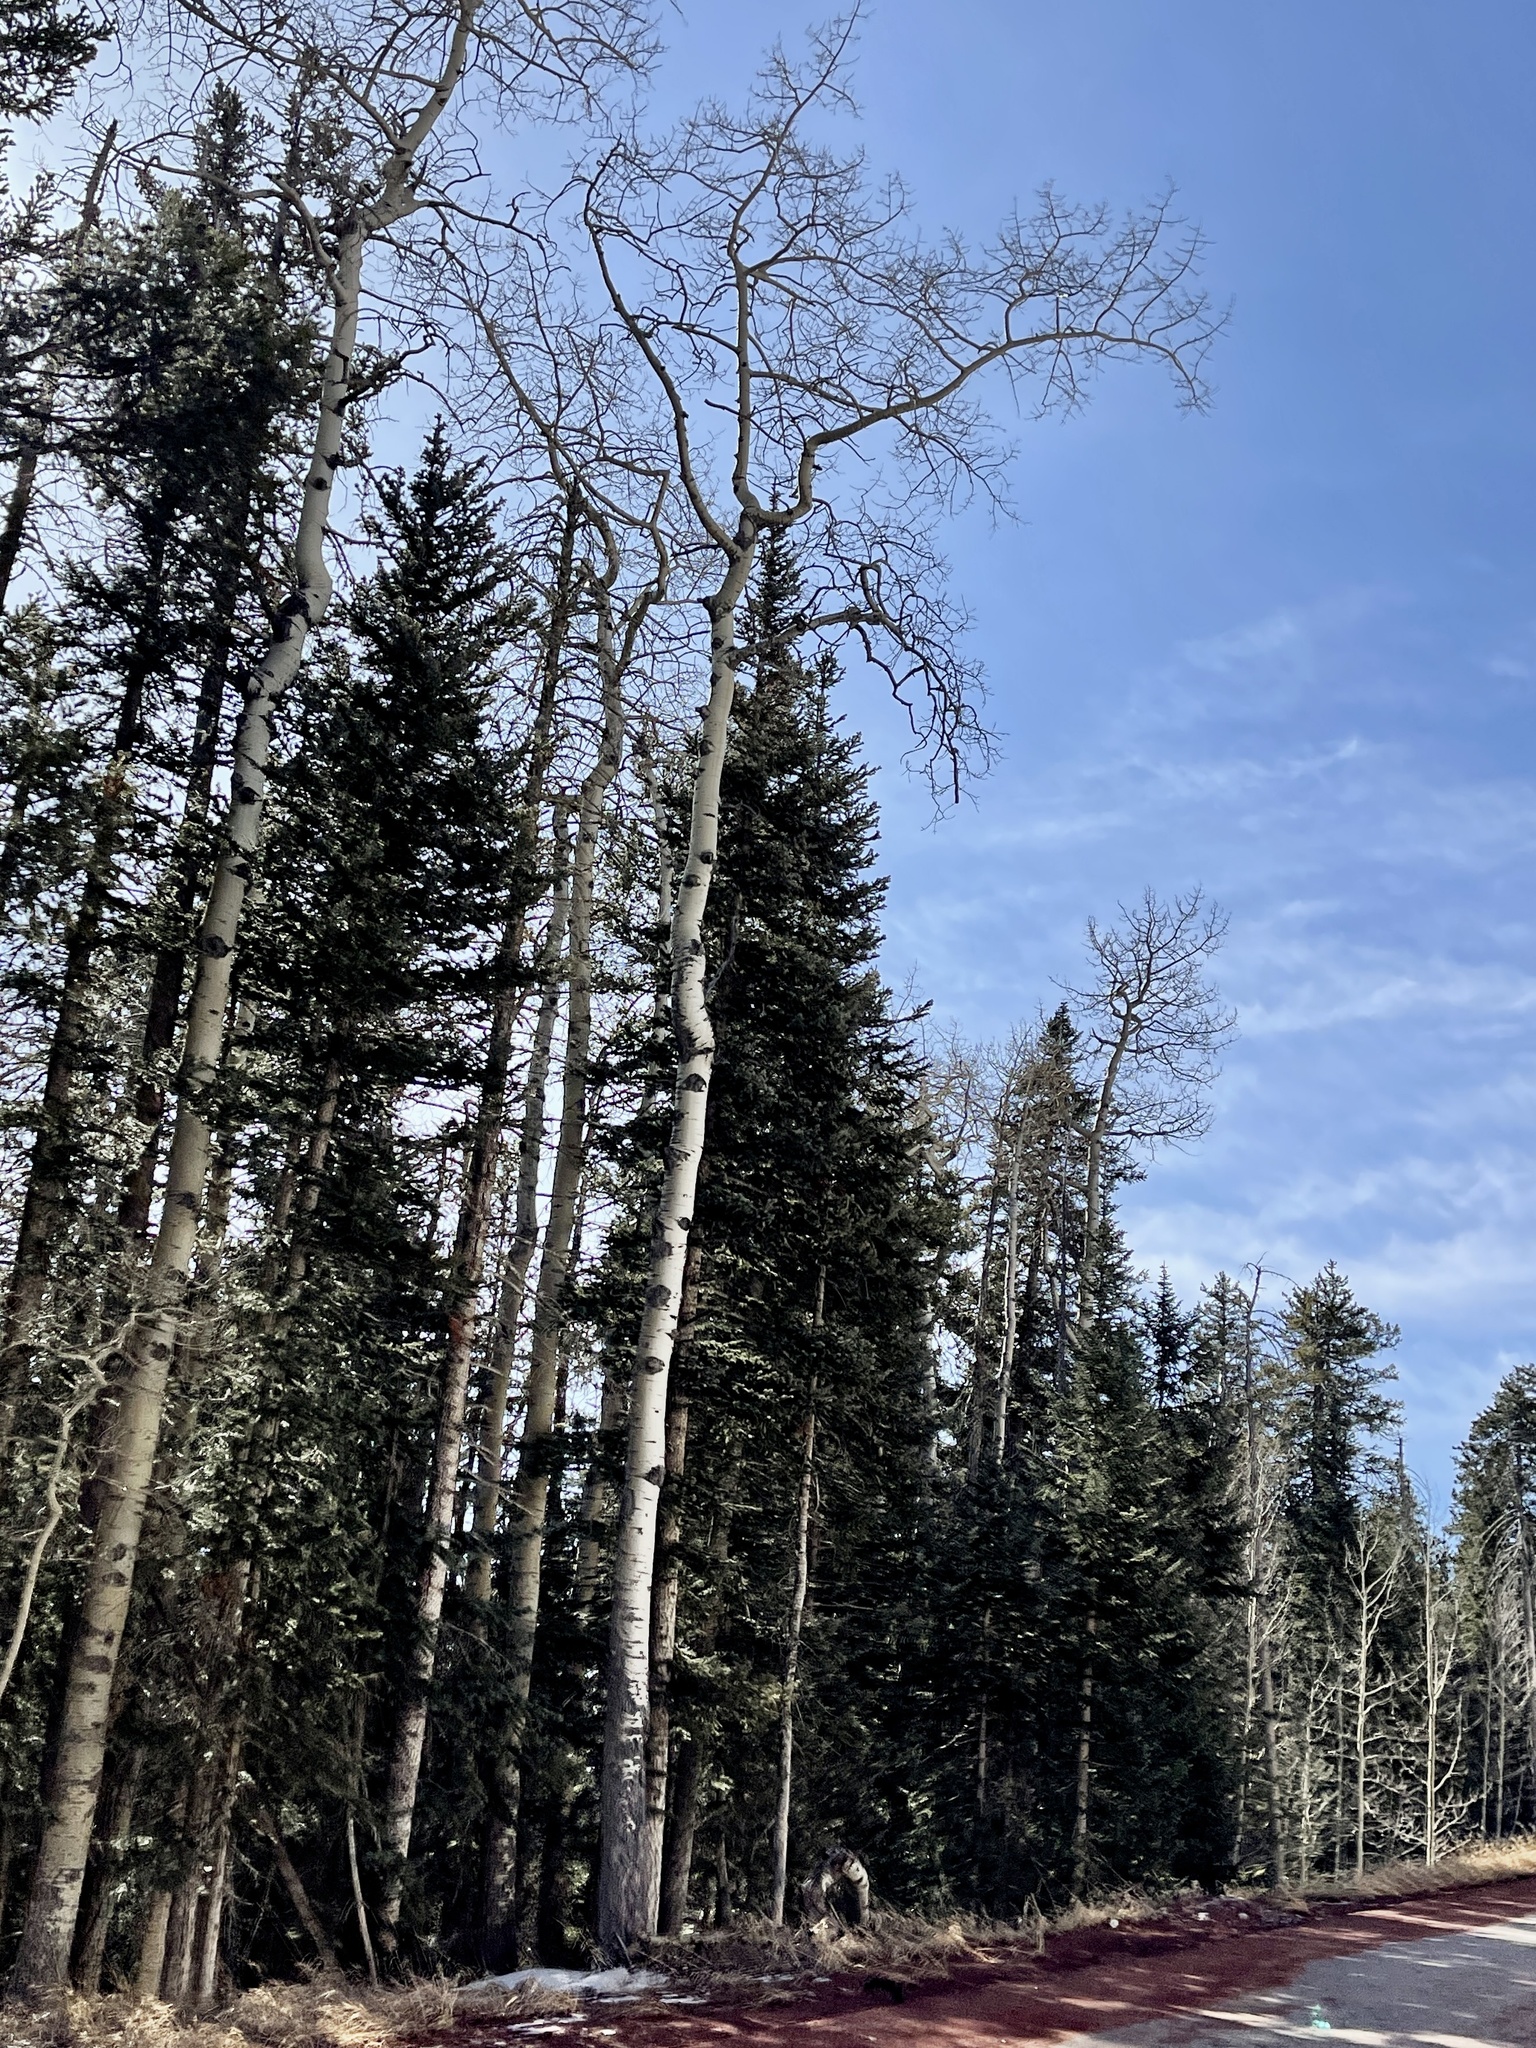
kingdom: Plantae
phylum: Tracheophyta
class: Magnoliopsida
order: Malpighiales
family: Salicaceae
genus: Populus
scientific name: Populus tremuloides
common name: Quaking aspen
